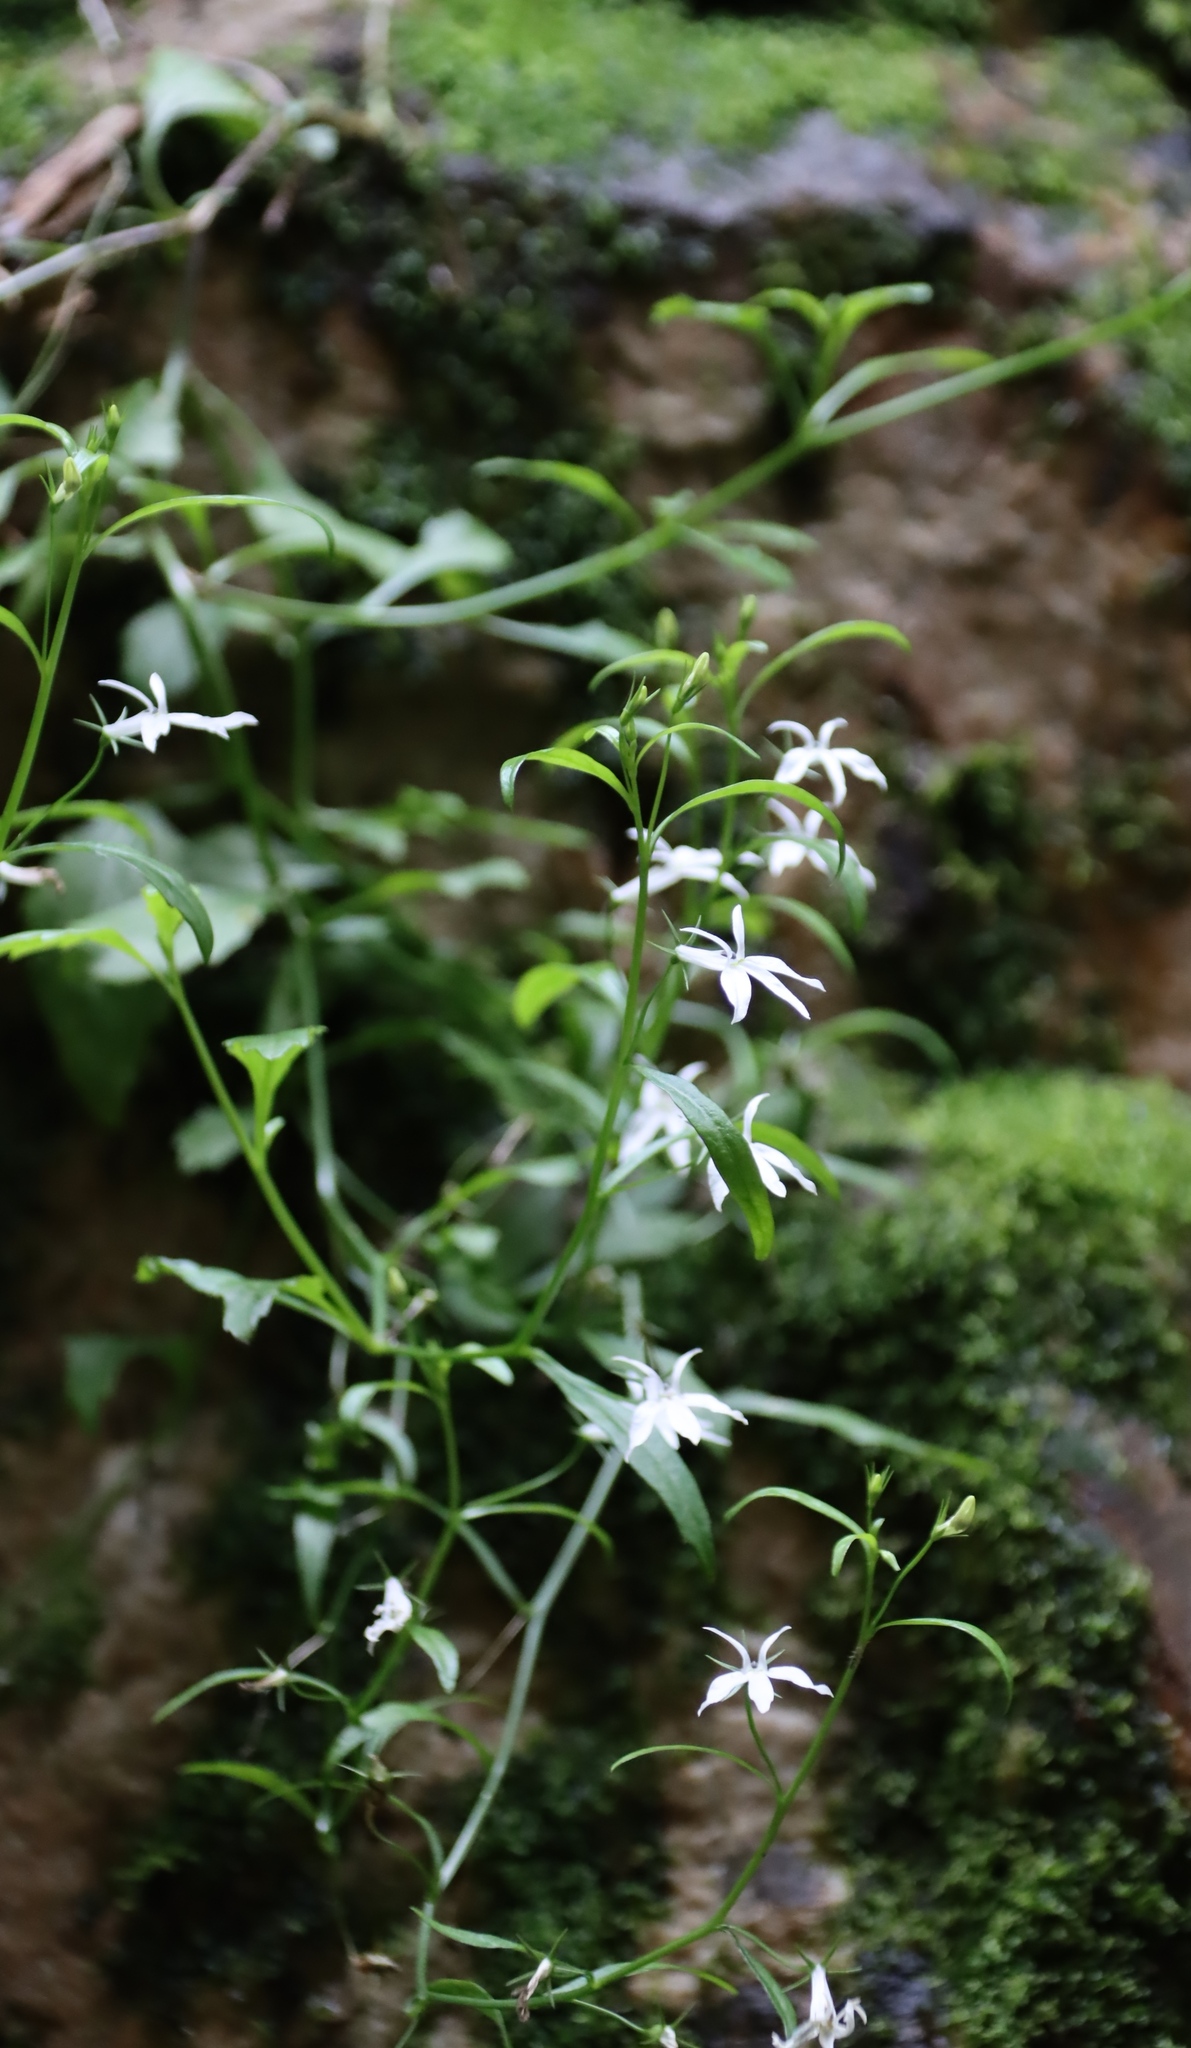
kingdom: Plantae
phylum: Tracheophyta
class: Magnoliopsida
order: Asterales
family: Campanulaceae
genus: Lobelia
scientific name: Lobelia pubescens
